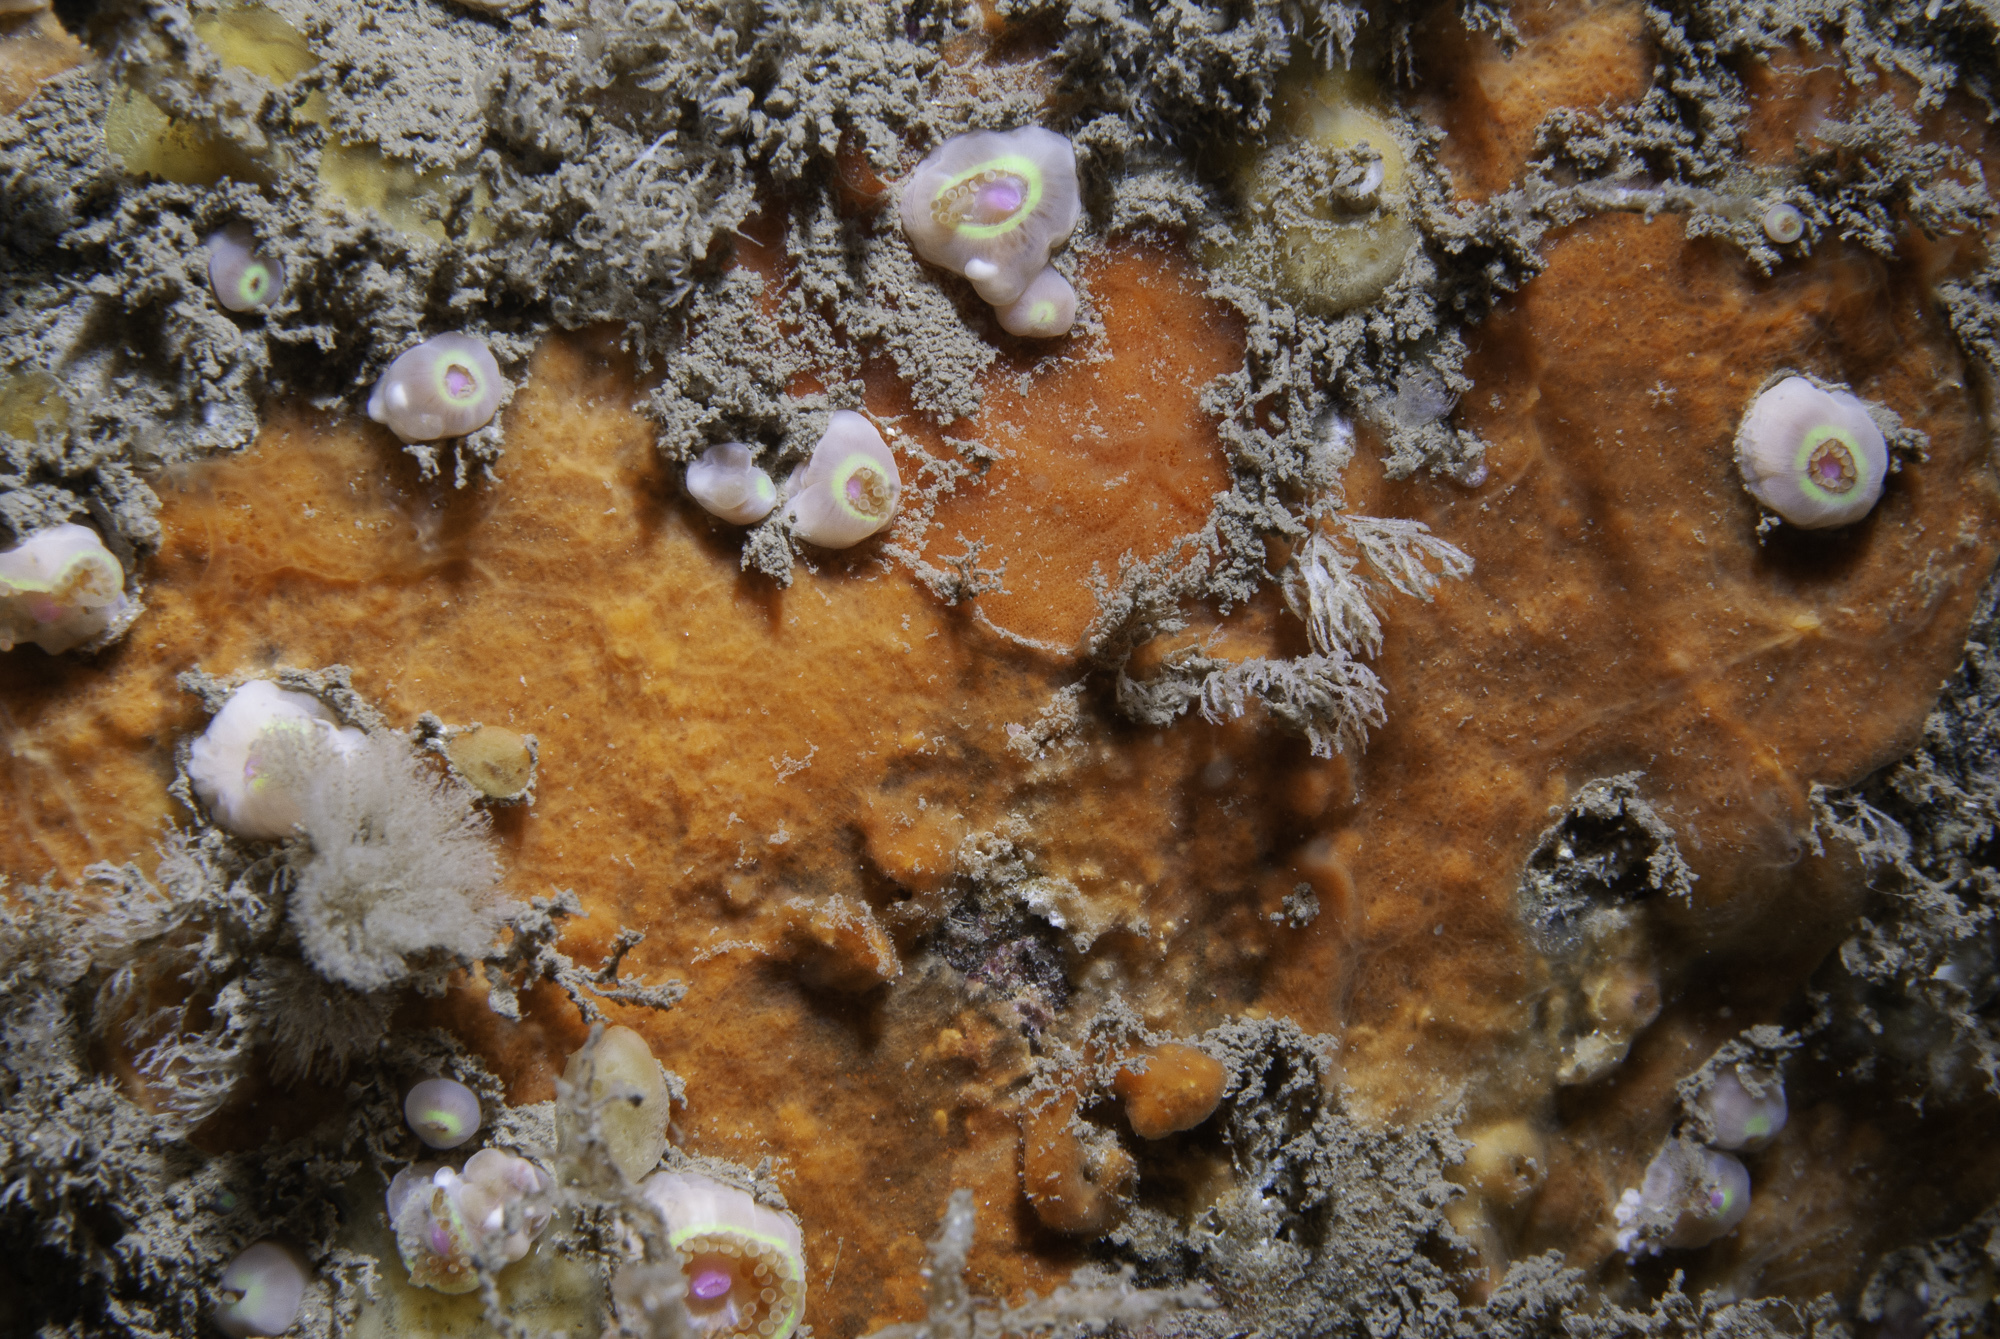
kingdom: Animalia
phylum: Porifera
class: Demospongiae
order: Poecilosclerida
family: Microcionidae
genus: Clathria
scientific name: Clathria spinarcus
